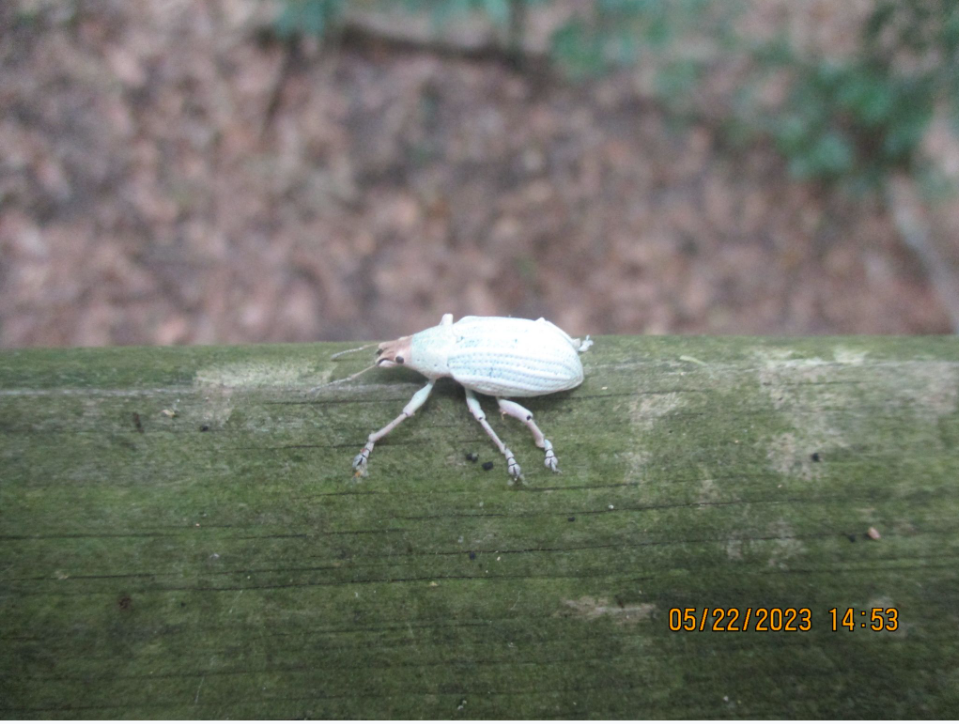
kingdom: Animalia
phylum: Arthropoda
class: Insecta
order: Coleoptera
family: Curculionidae
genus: Compsus
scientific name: Compsus auricephalus
